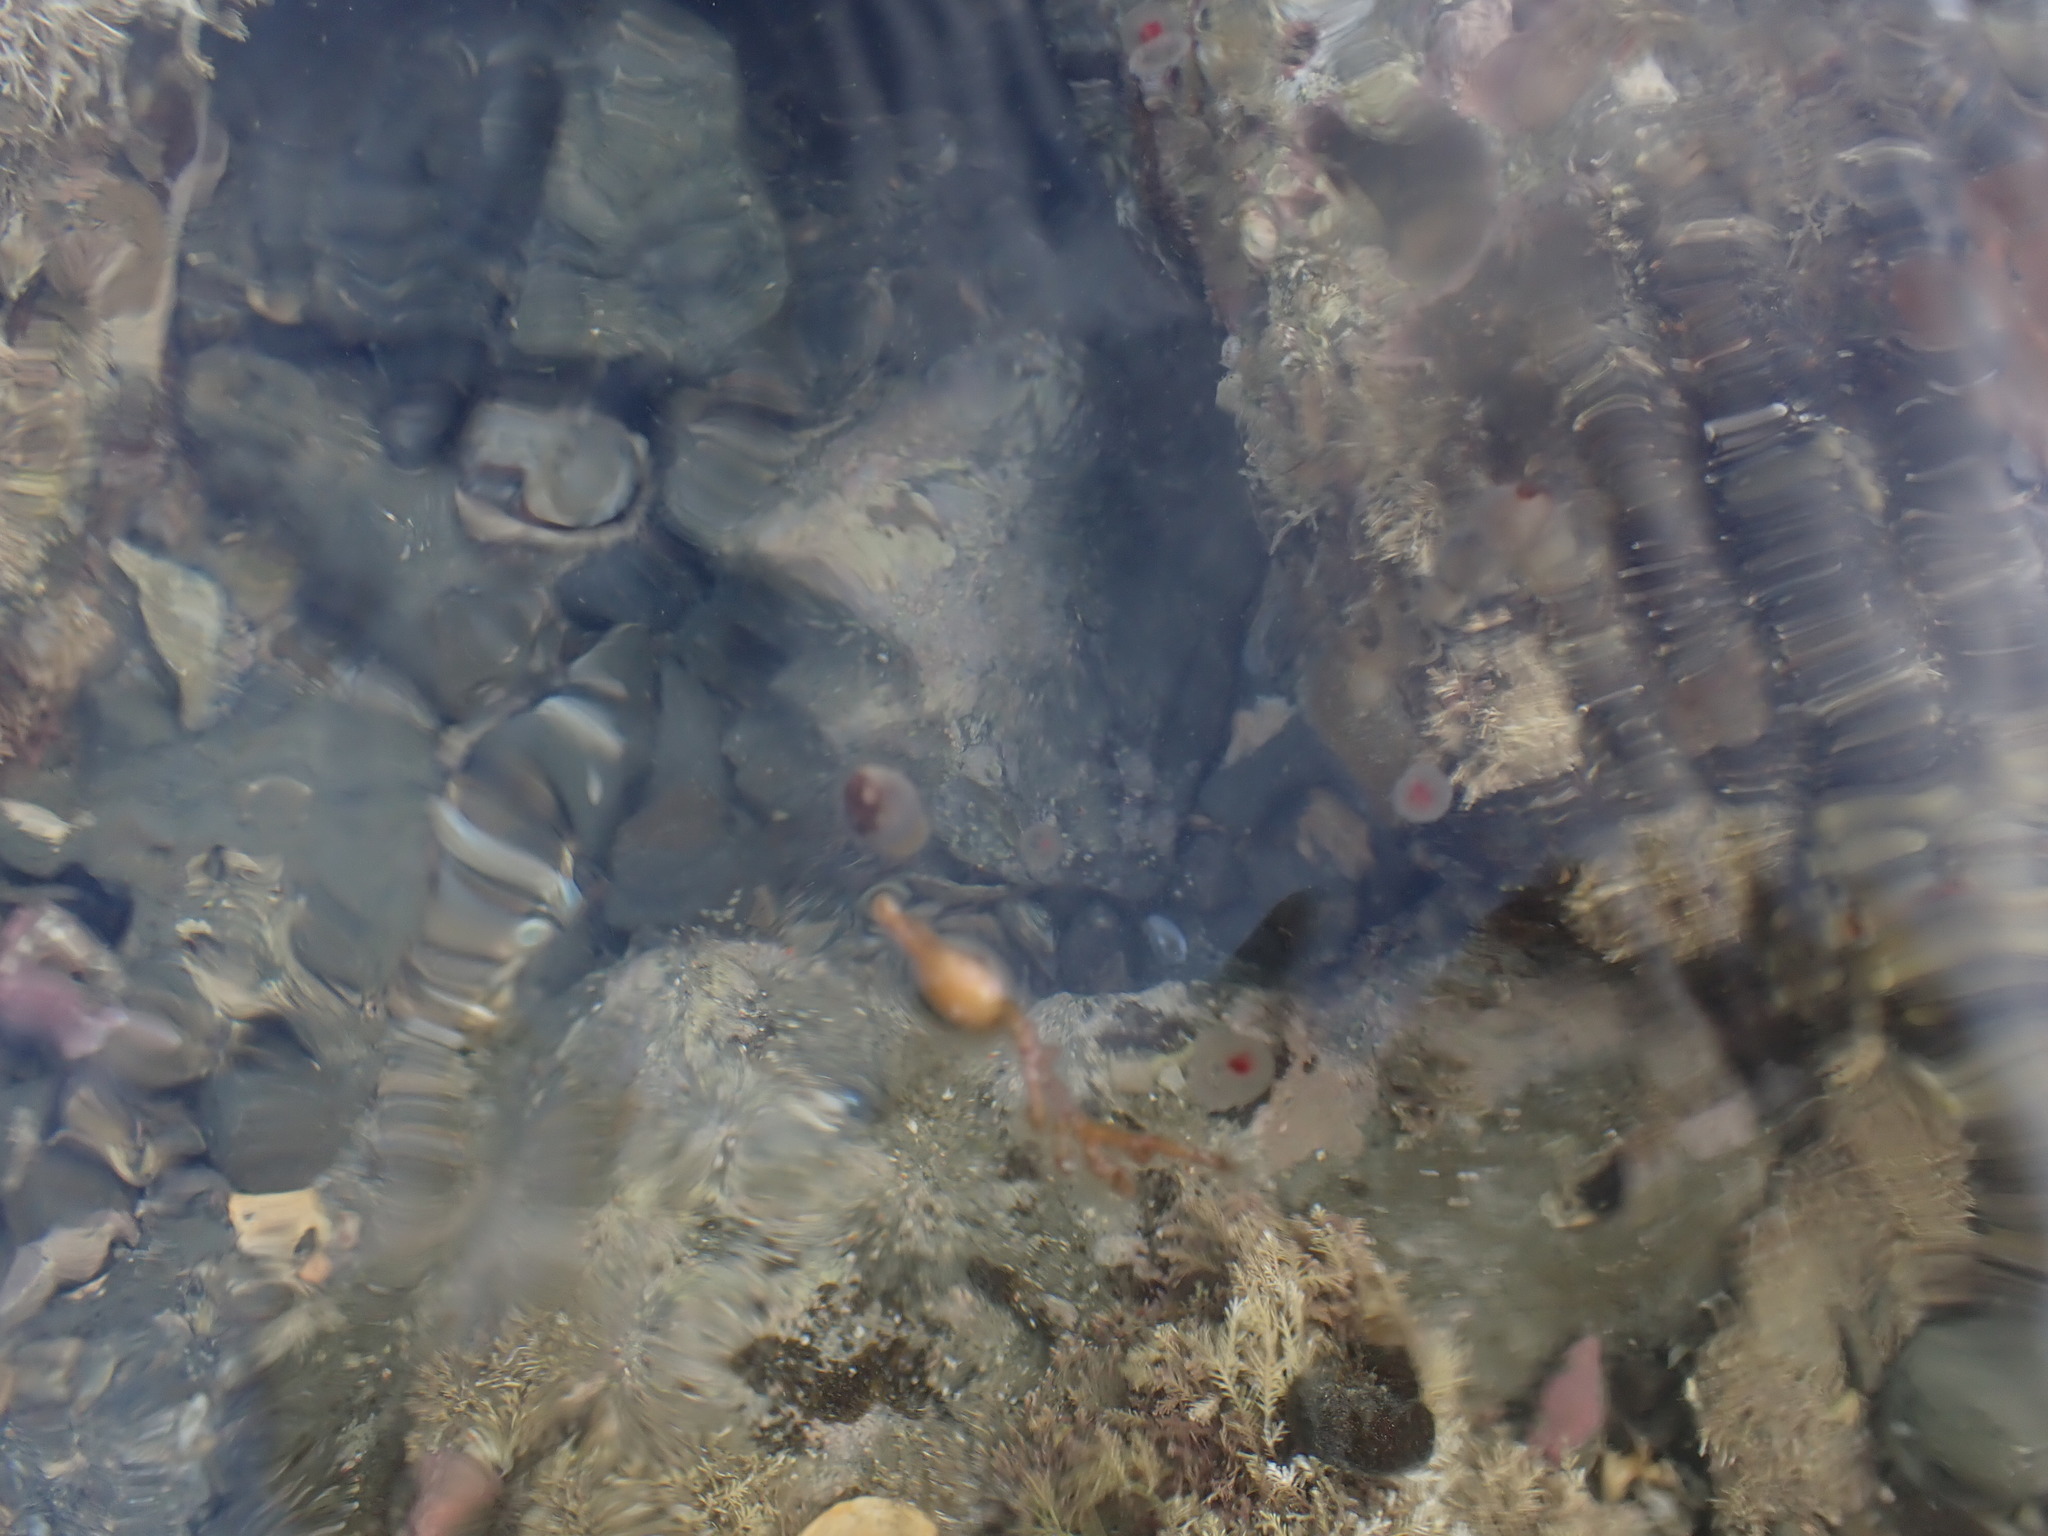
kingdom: Animalia
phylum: Cnidaria
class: Hydrozoa
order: Anthoathecata
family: Oceaniidae
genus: Turritopsis
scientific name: Turritopsis rubra
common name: Crimson jelly
